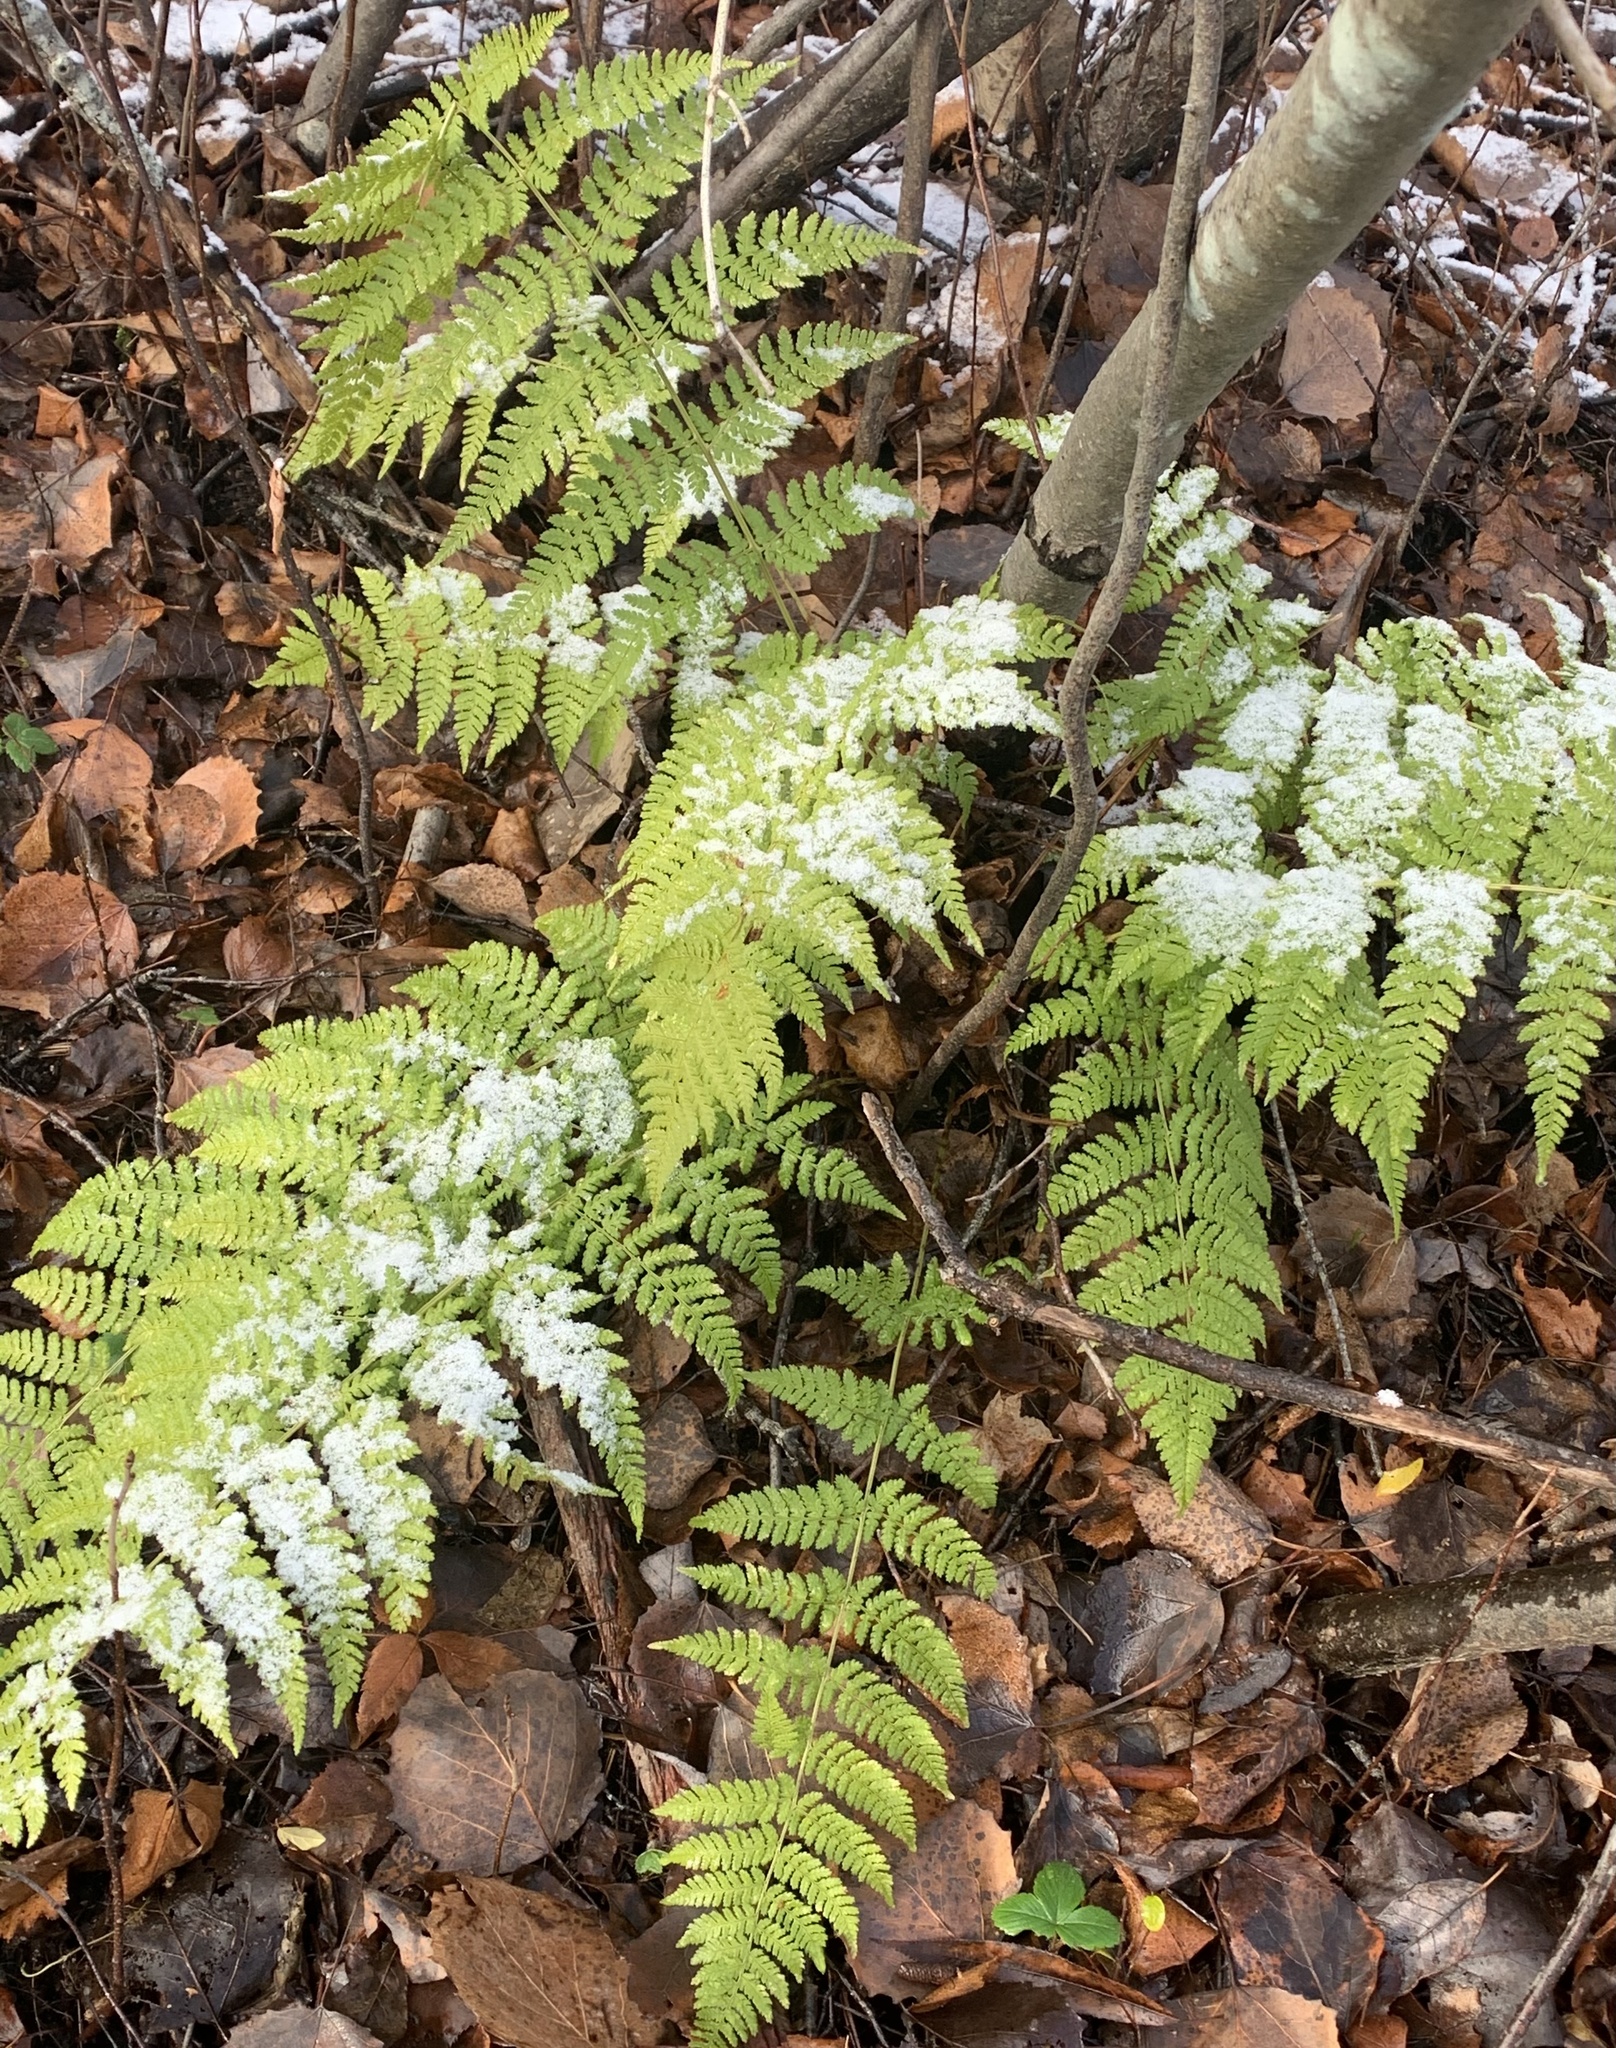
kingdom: Plantae
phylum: Tracheophyta
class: Polypodiopsida
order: Polypodiales
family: Dryopteridaceae
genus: Dryopteris
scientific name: Dryopteris intermedia
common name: Evergreen wood fern
